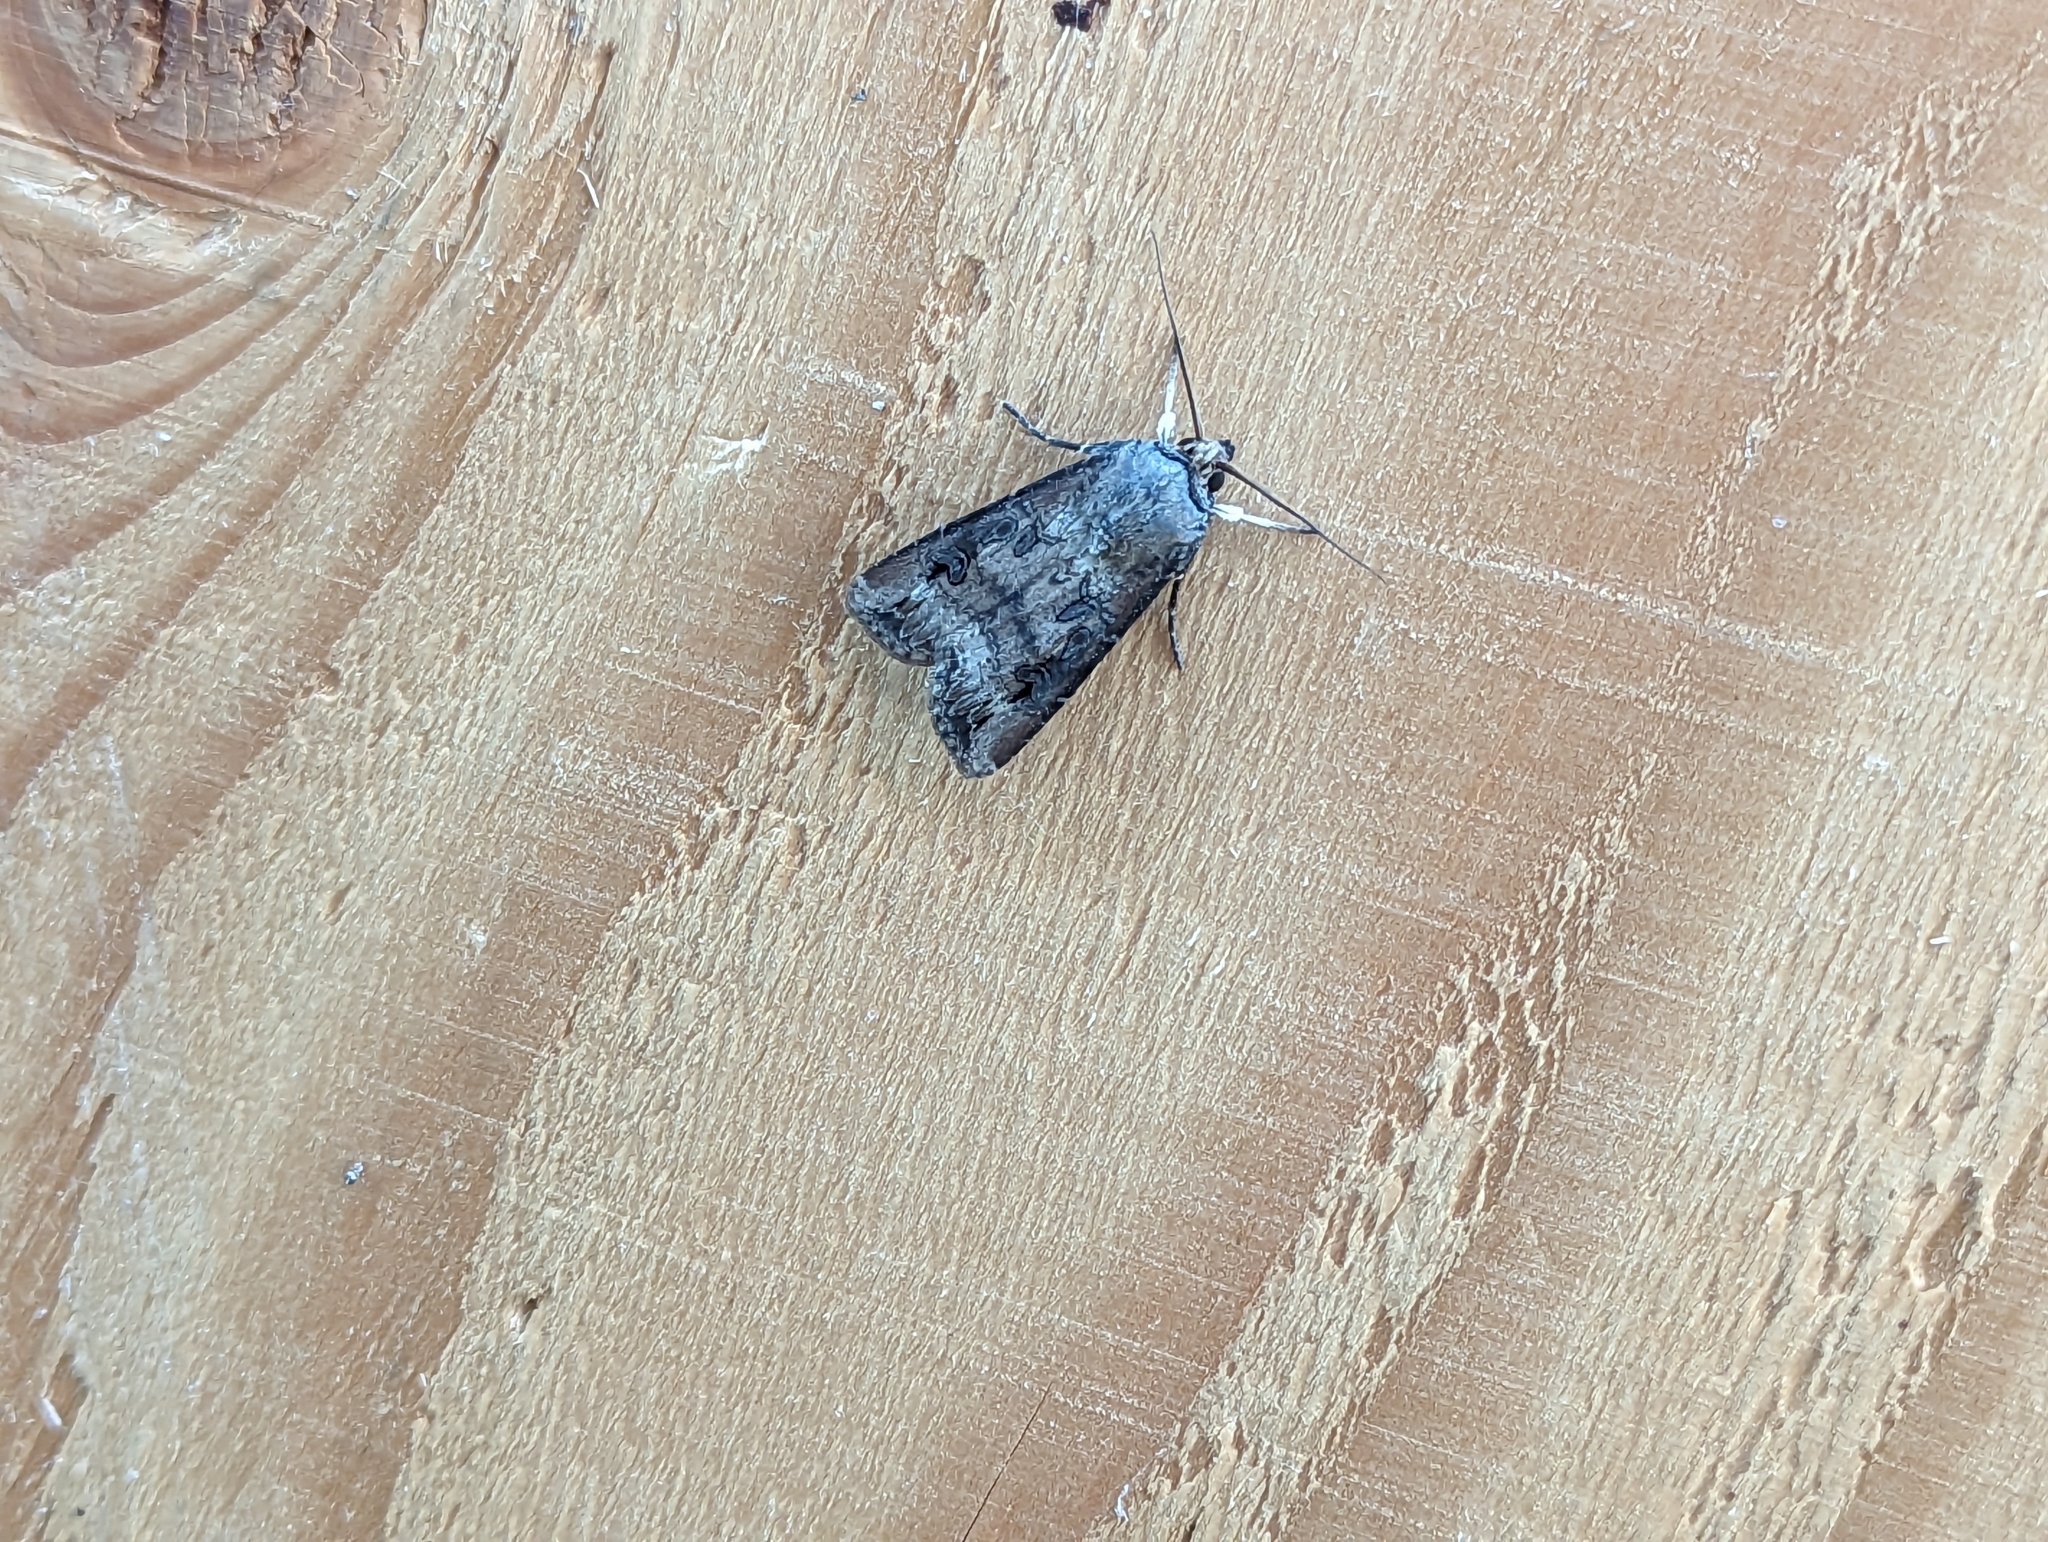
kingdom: Animalia
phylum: Arthropoda
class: Insecta
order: Lepidoptera
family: Noctuidae
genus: Agrotis
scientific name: Agrotis ipsilon
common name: Dark sword-grass
